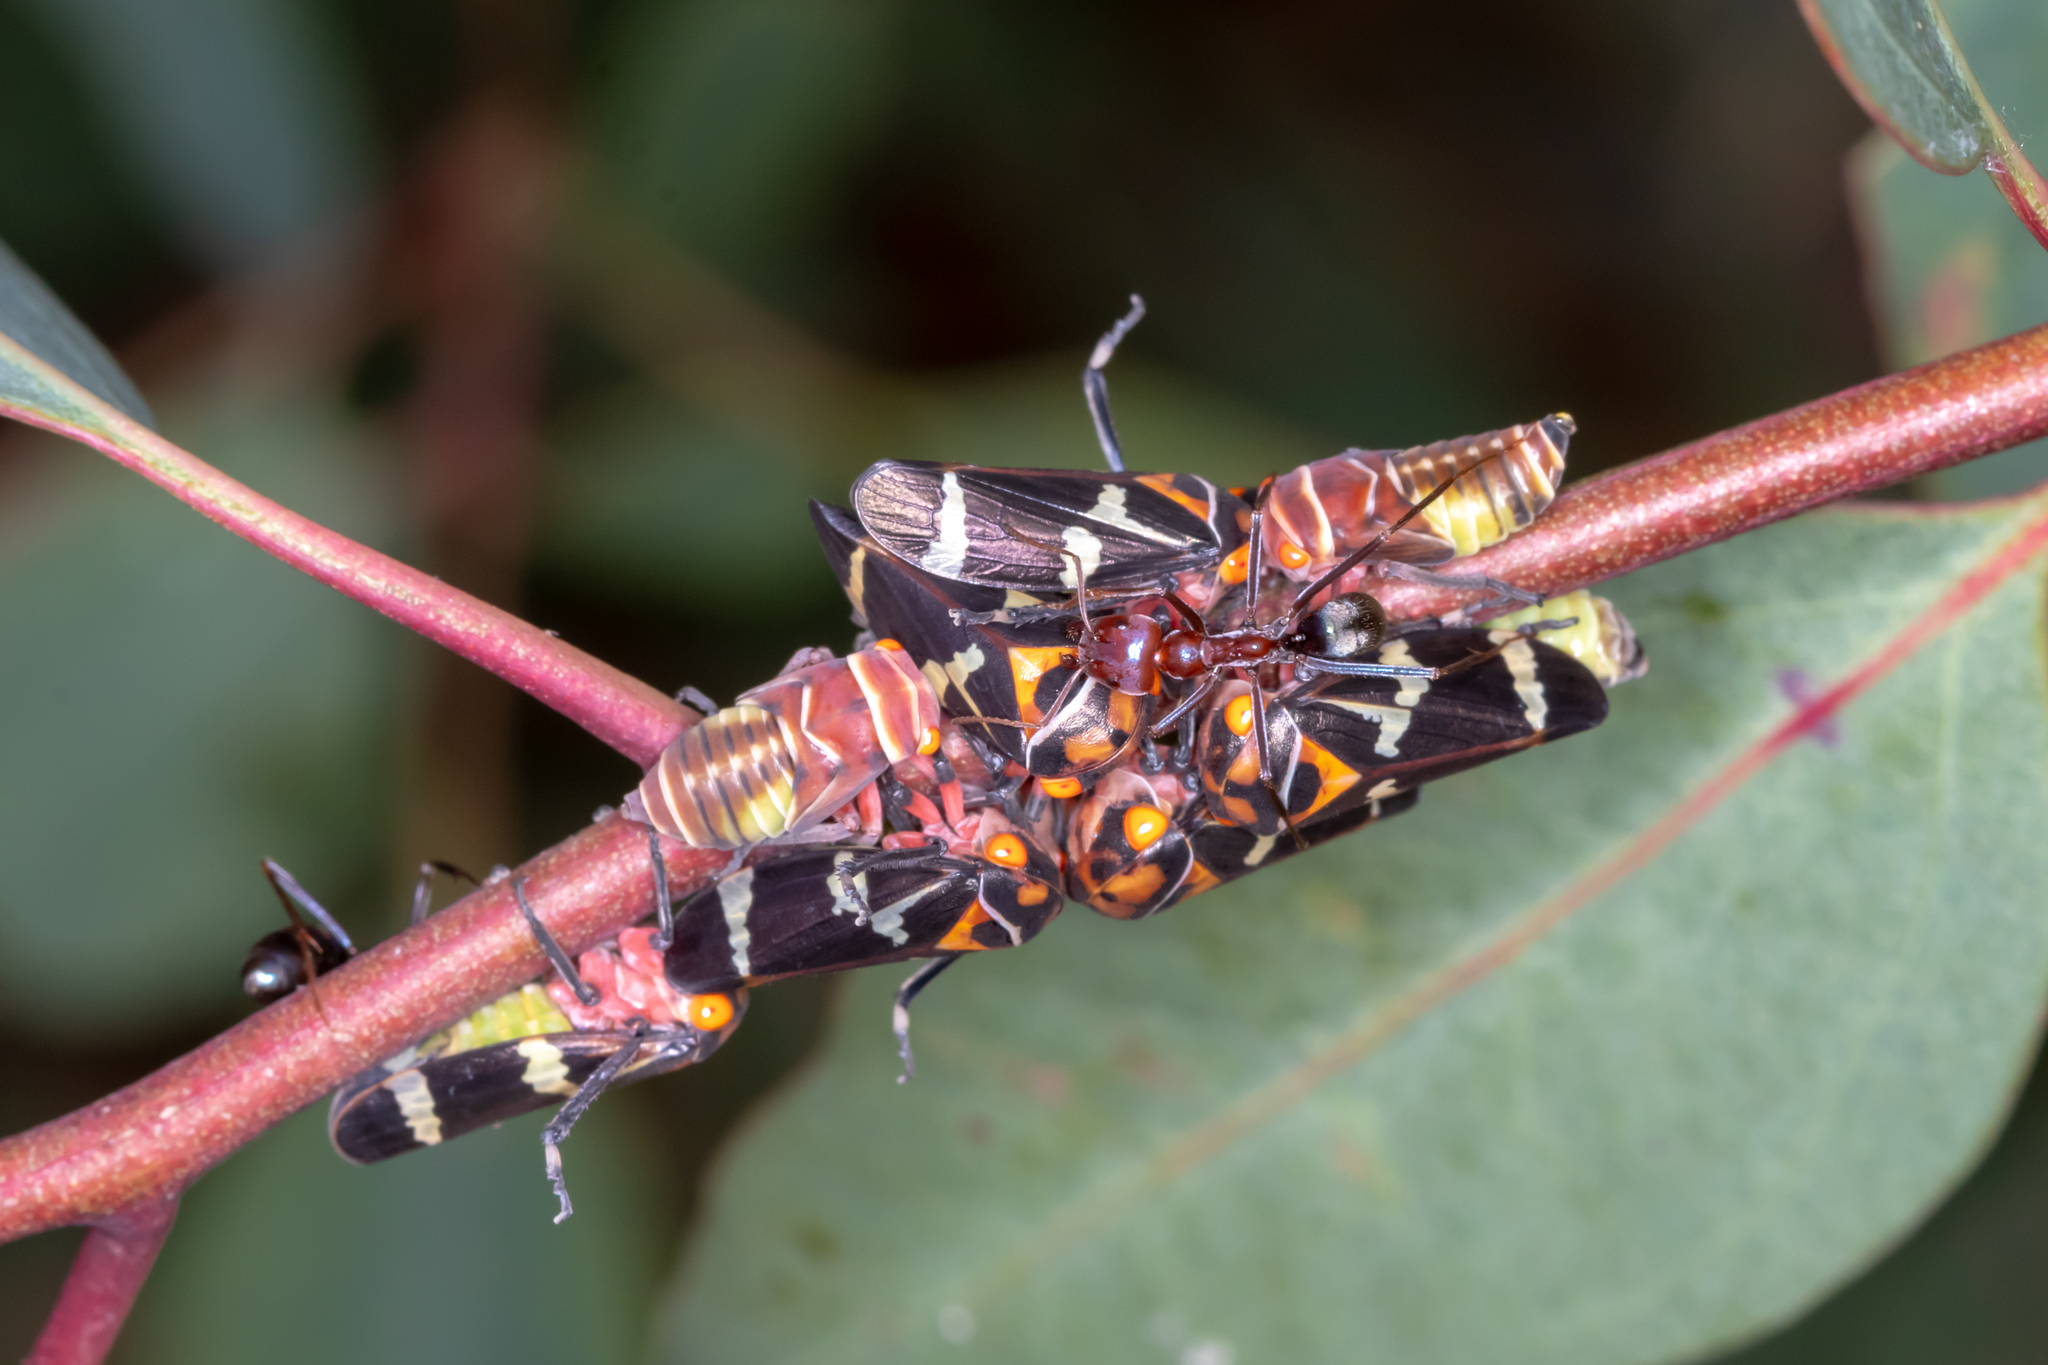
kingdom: Animalia
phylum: Arthropoda
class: Insecta
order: Hemiptera
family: Cicadellidae
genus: Eurymeloides
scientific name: Eurymeloides pulchra
